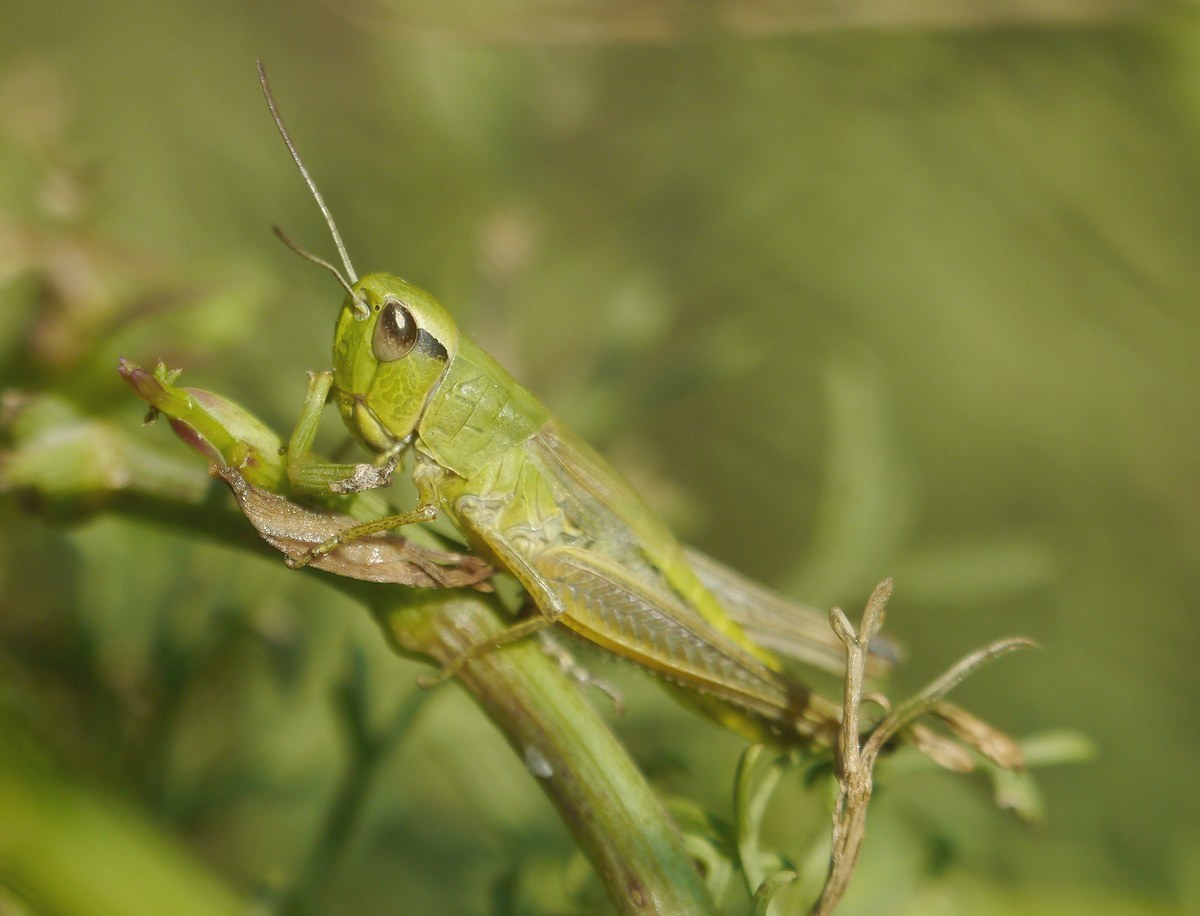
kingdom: Animalia
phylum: Arthropoda
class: Insecta
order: Orthoptera
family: Acrididae
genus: Pseudochorthippus
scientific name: Pseudochorthippus parallelus
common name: Meadow grasshopper
